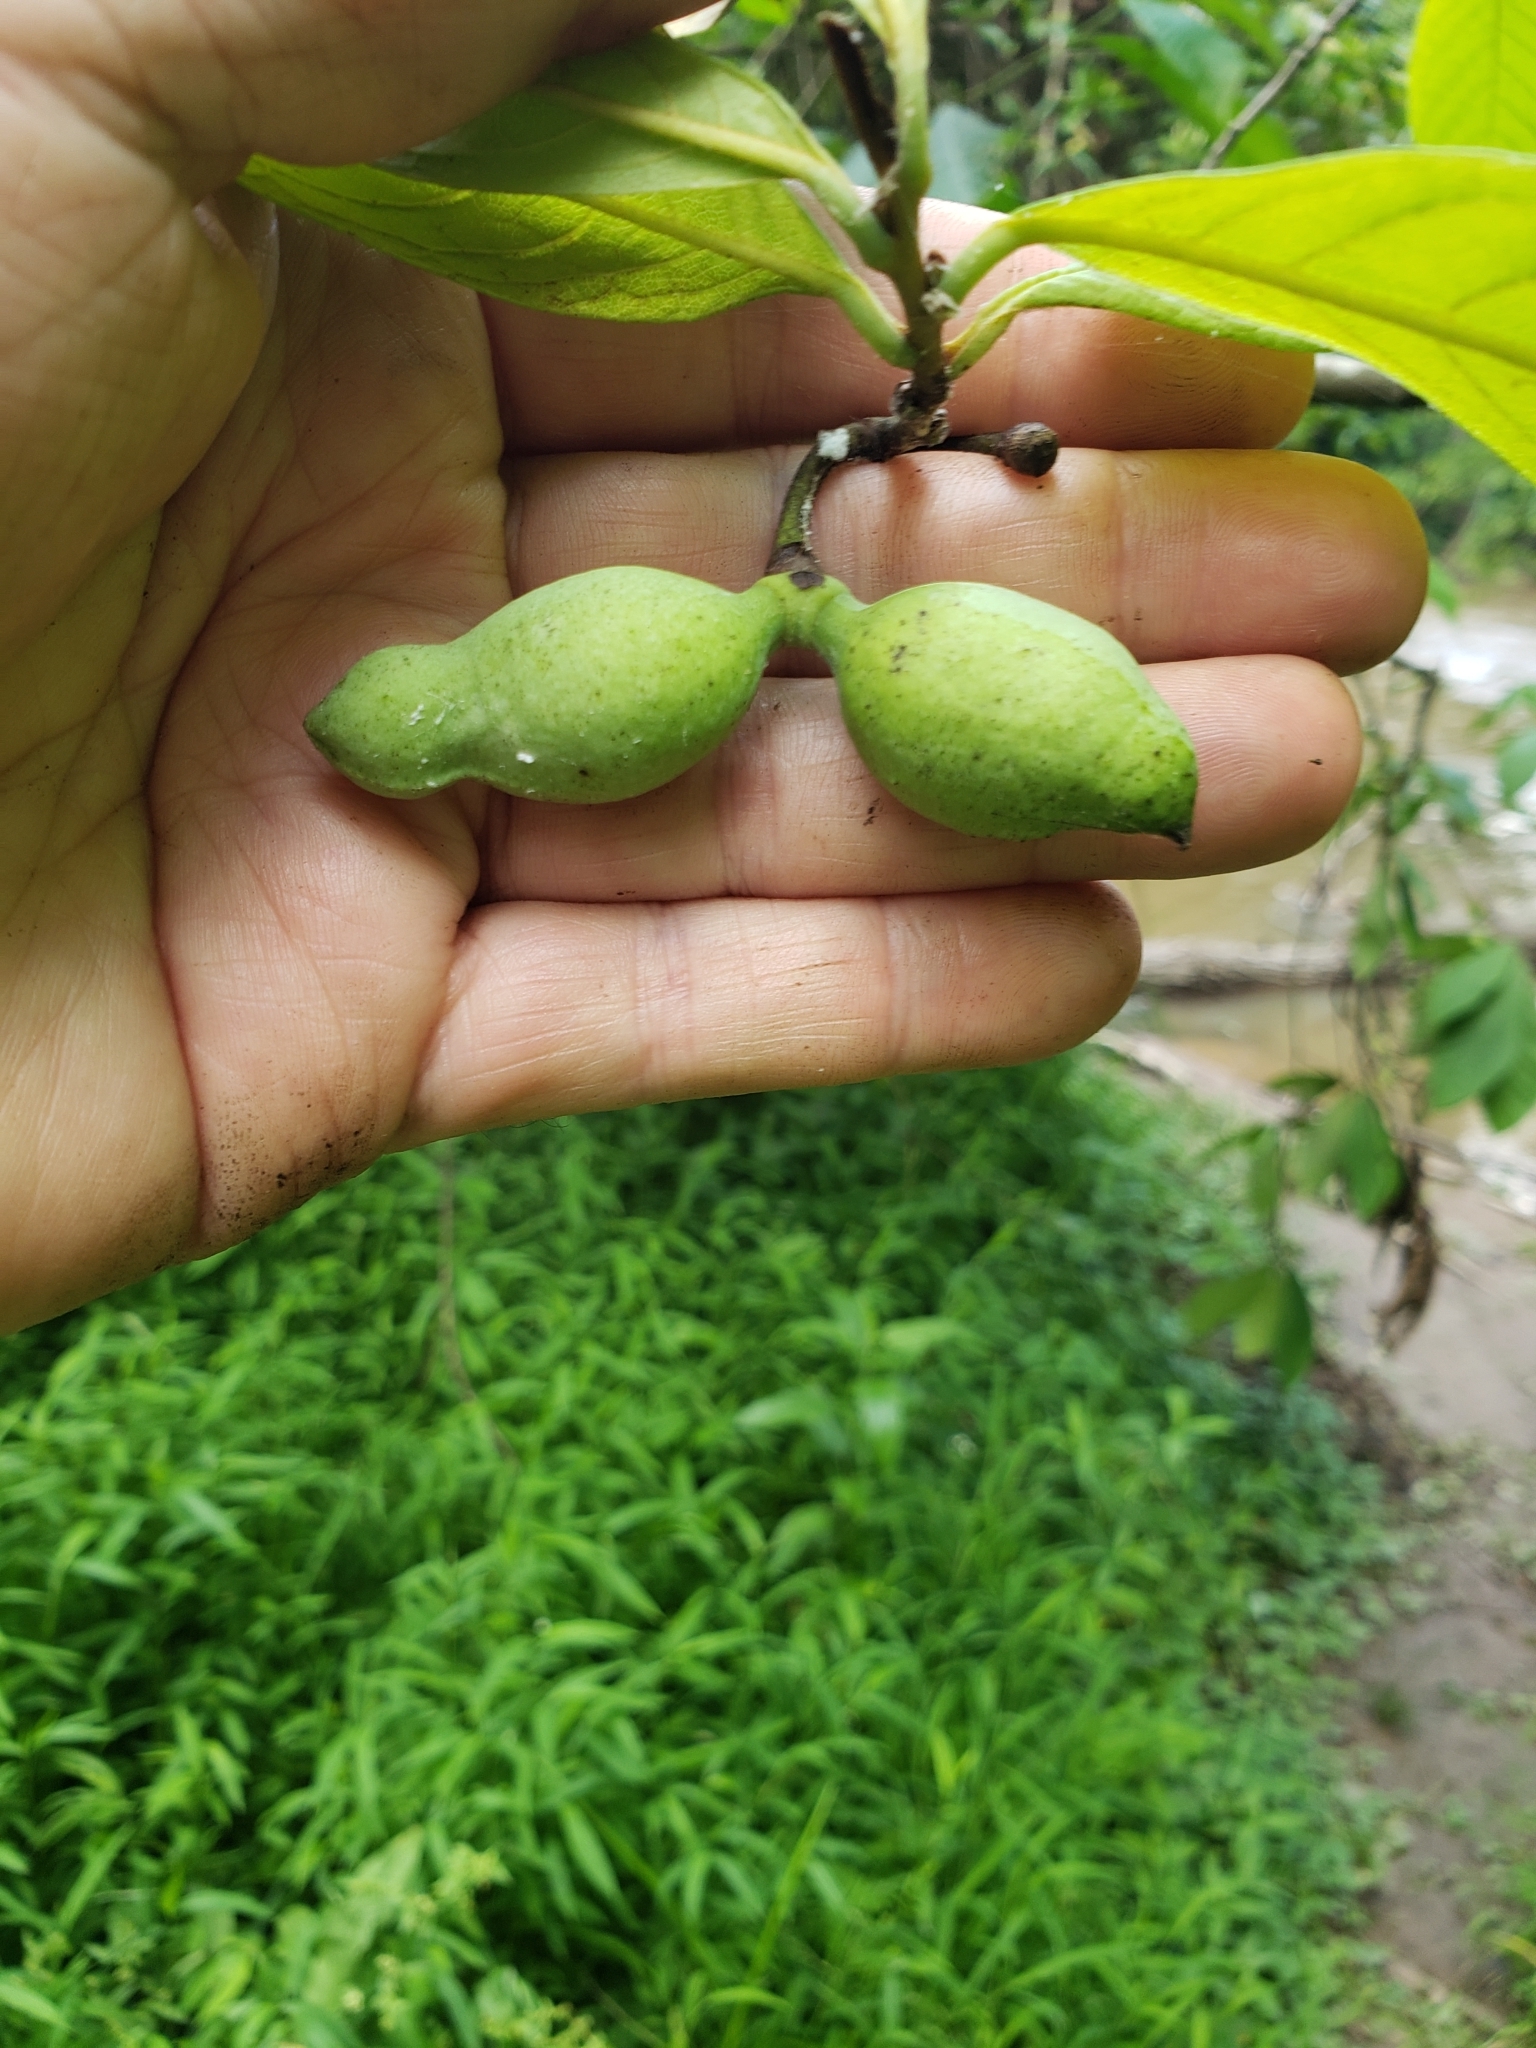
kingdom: Plantae
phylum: Tracheophyta
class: Magnoliopsida
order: Magnoliales
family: Annonaceae
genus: Asimina
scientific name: Asimina triloba
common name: Dog-banana
